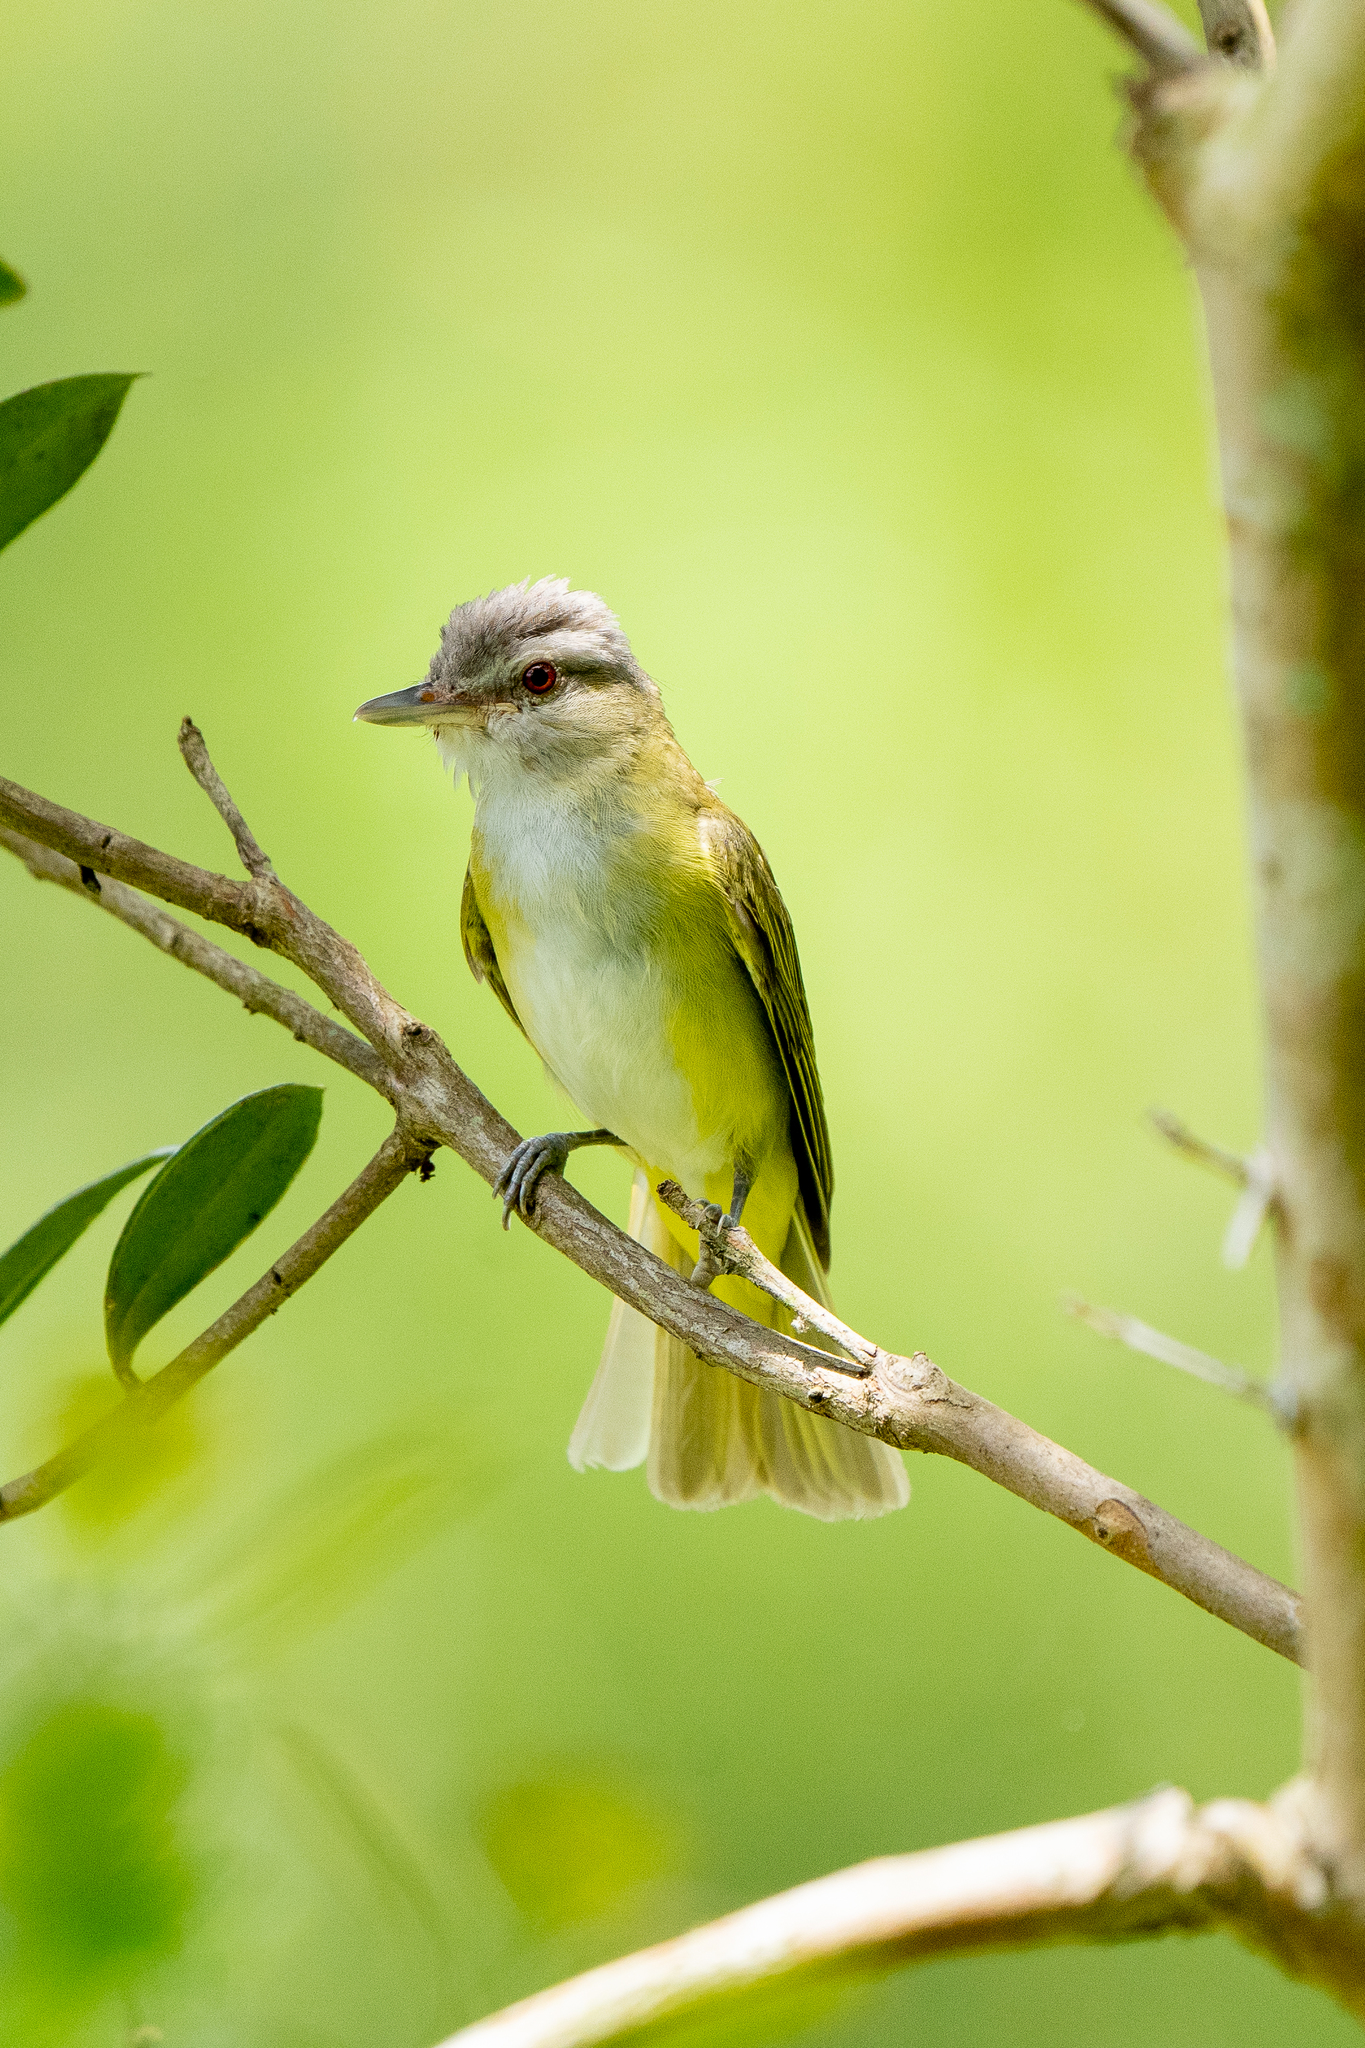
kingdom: Animalia
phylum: Chordata
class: Aves
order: Passeriformes
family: Vireonidae
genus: Vireo
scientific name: Vireo flavoviridis
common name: Yellow-green vireo
